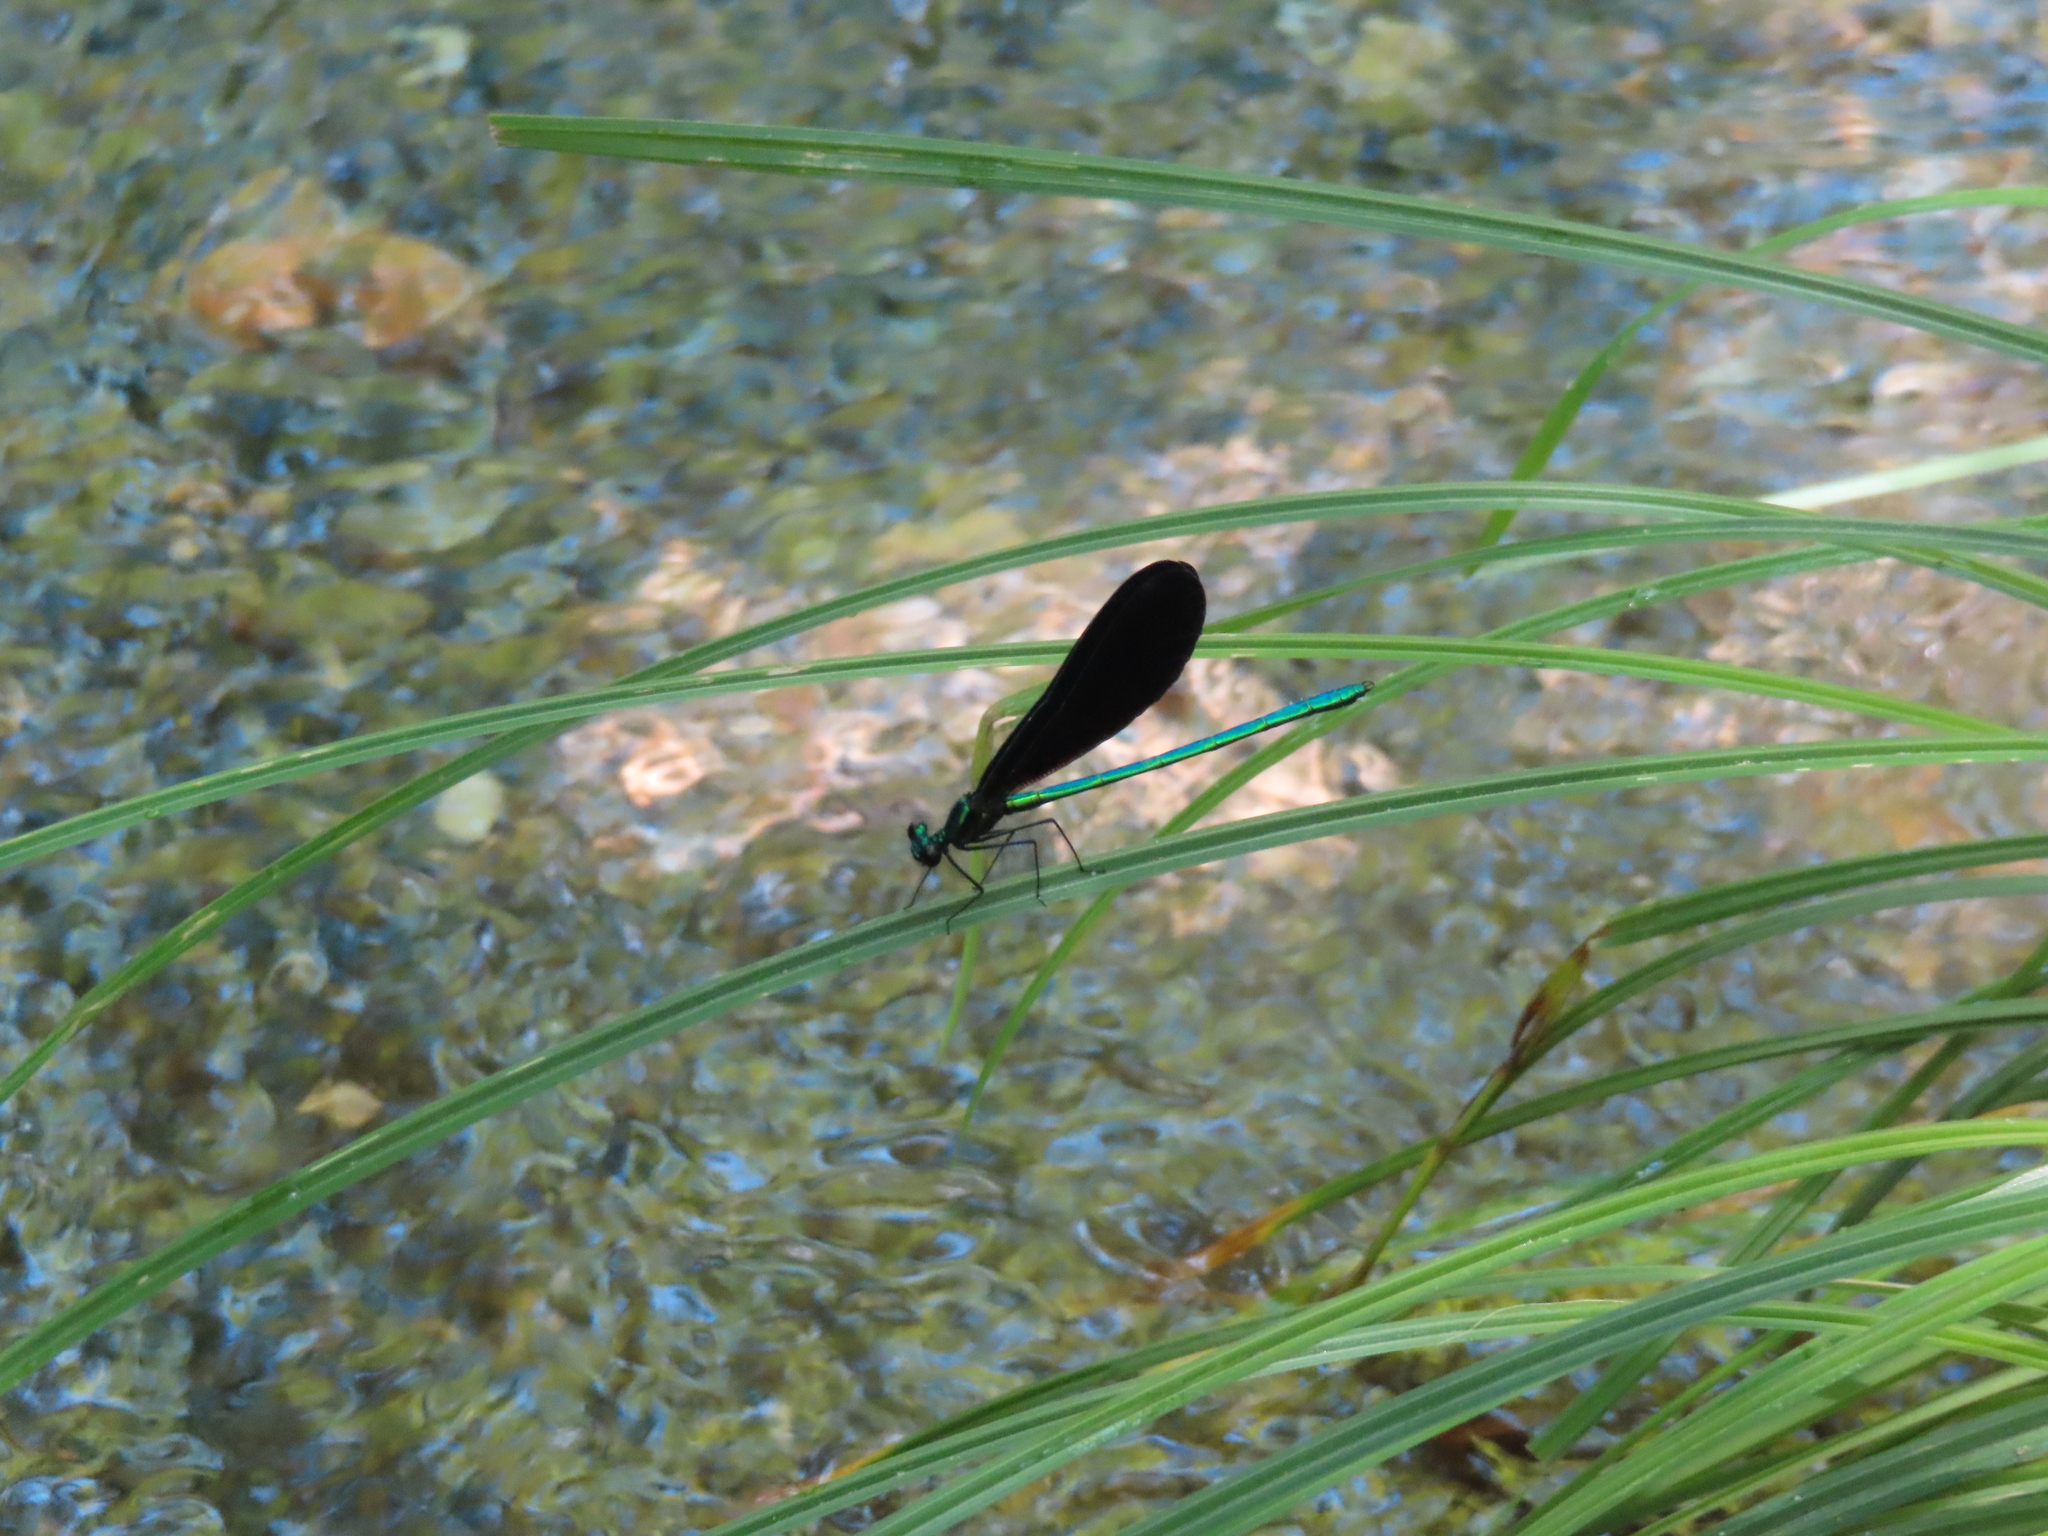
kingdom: Animalia
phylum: Arthropoda
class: Insecta
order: Odonata
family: Calopterygidae
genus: Calopteryx
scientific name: Calopteryx maculata
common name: Ebony jewelwing
